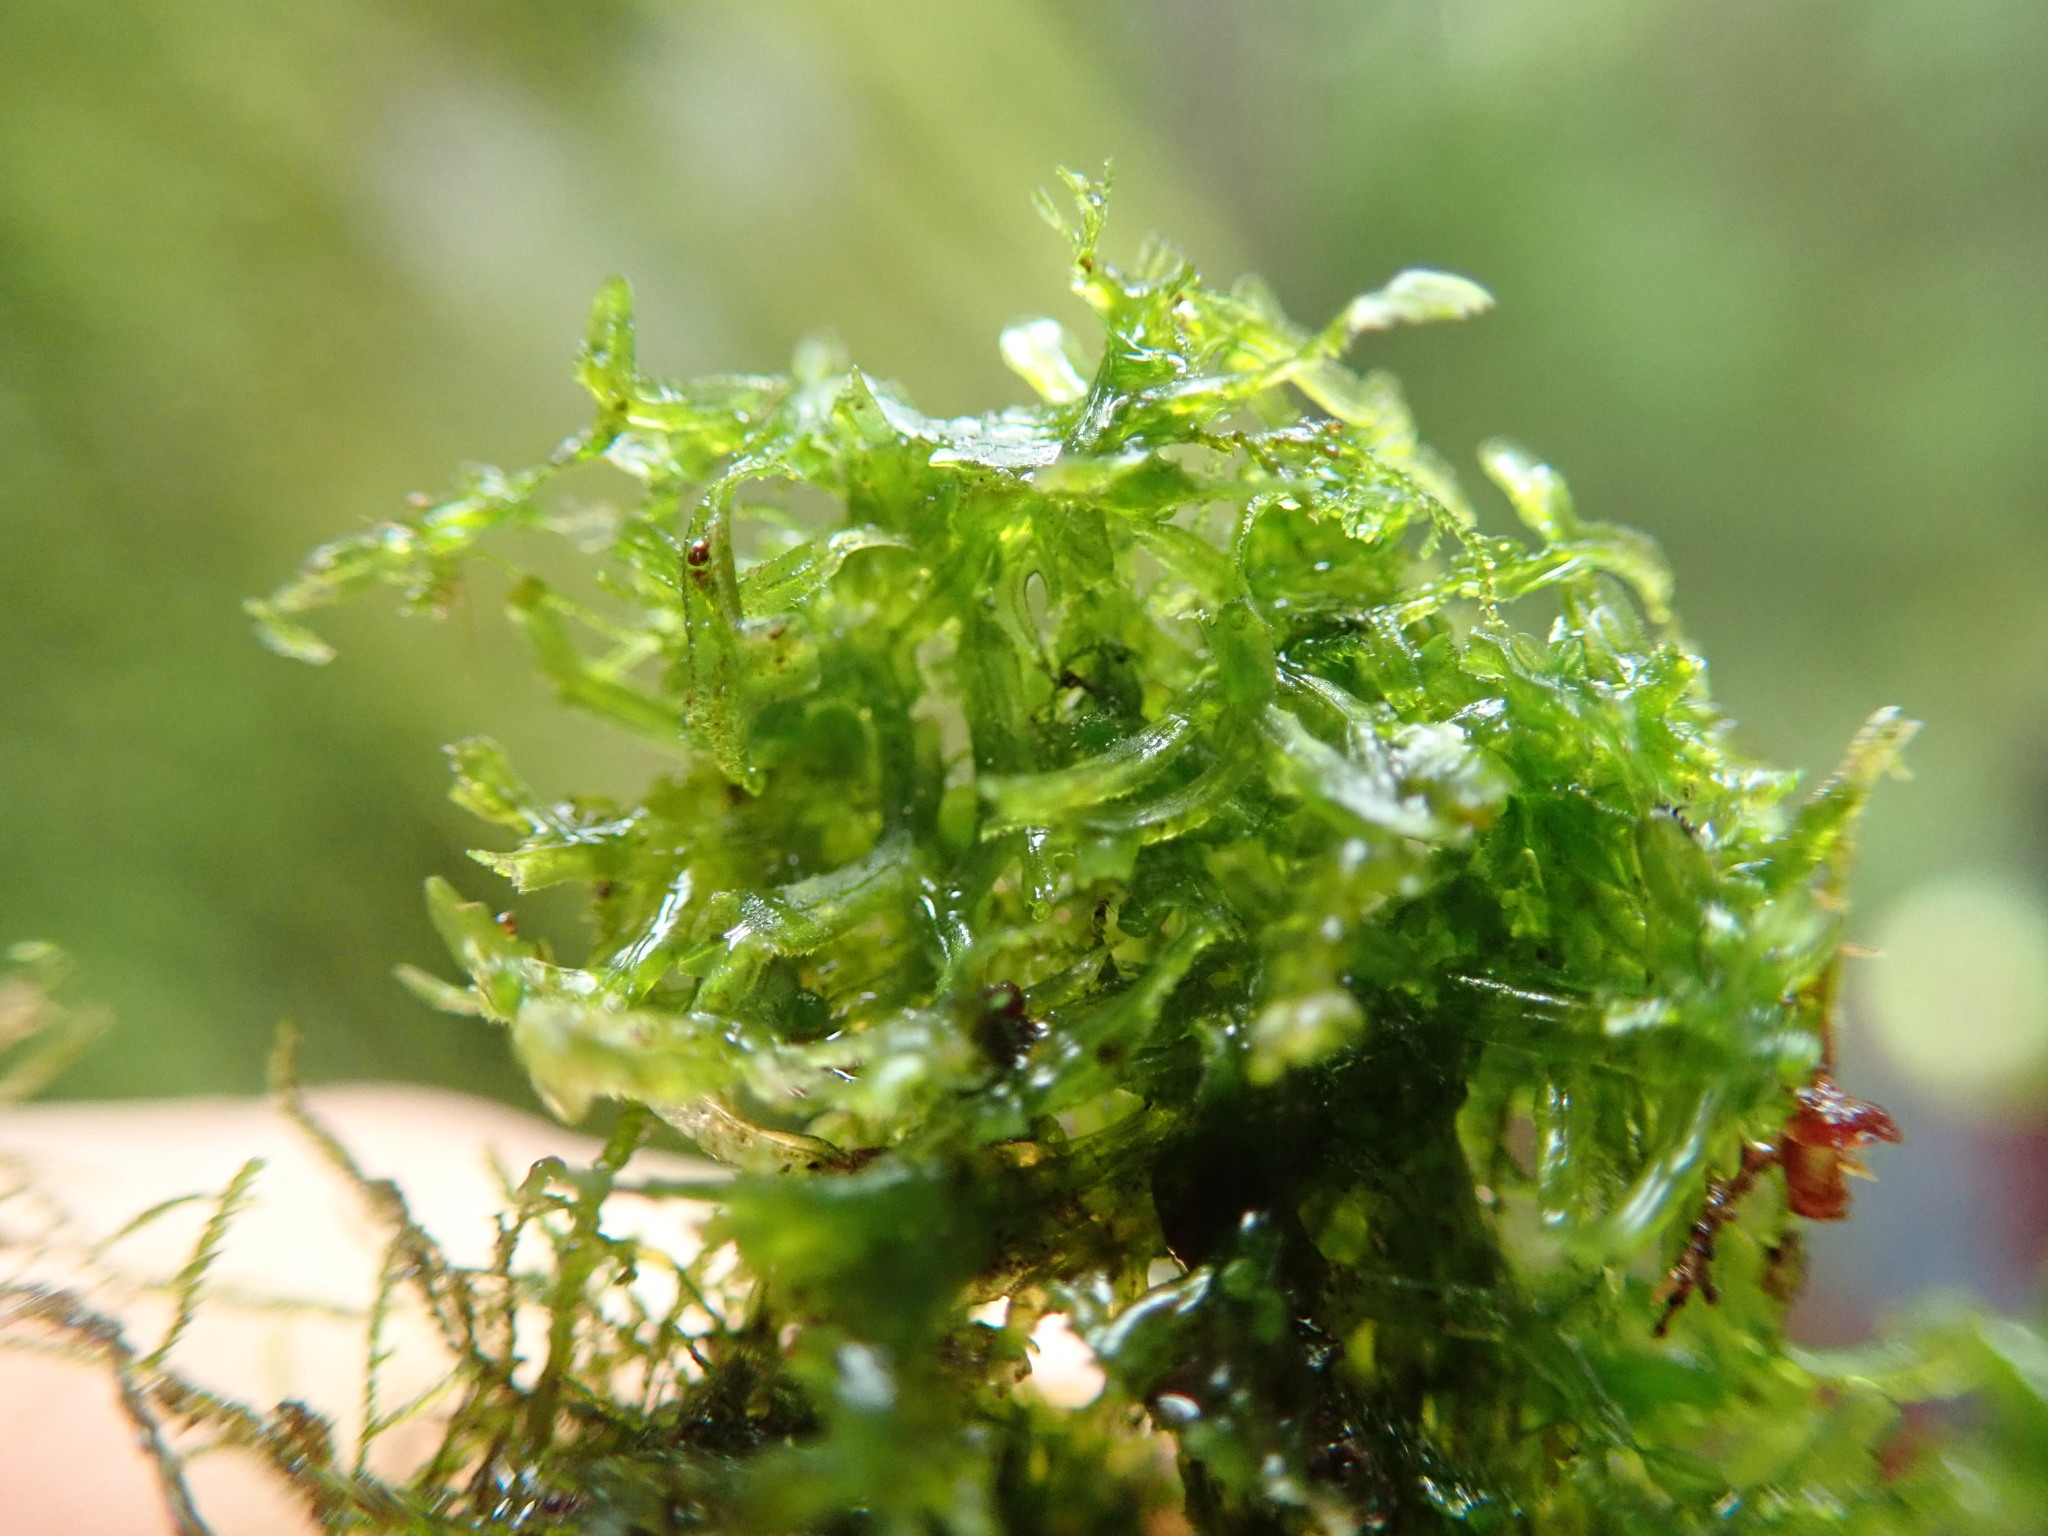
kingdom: Plantae
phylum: Marchantiophyta
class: Jungermanniopsida
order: Metzgeriales
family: Metzgeriaceae
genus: Metzgeria
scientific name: Metzgeria conjugata
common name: Rock veilwort
